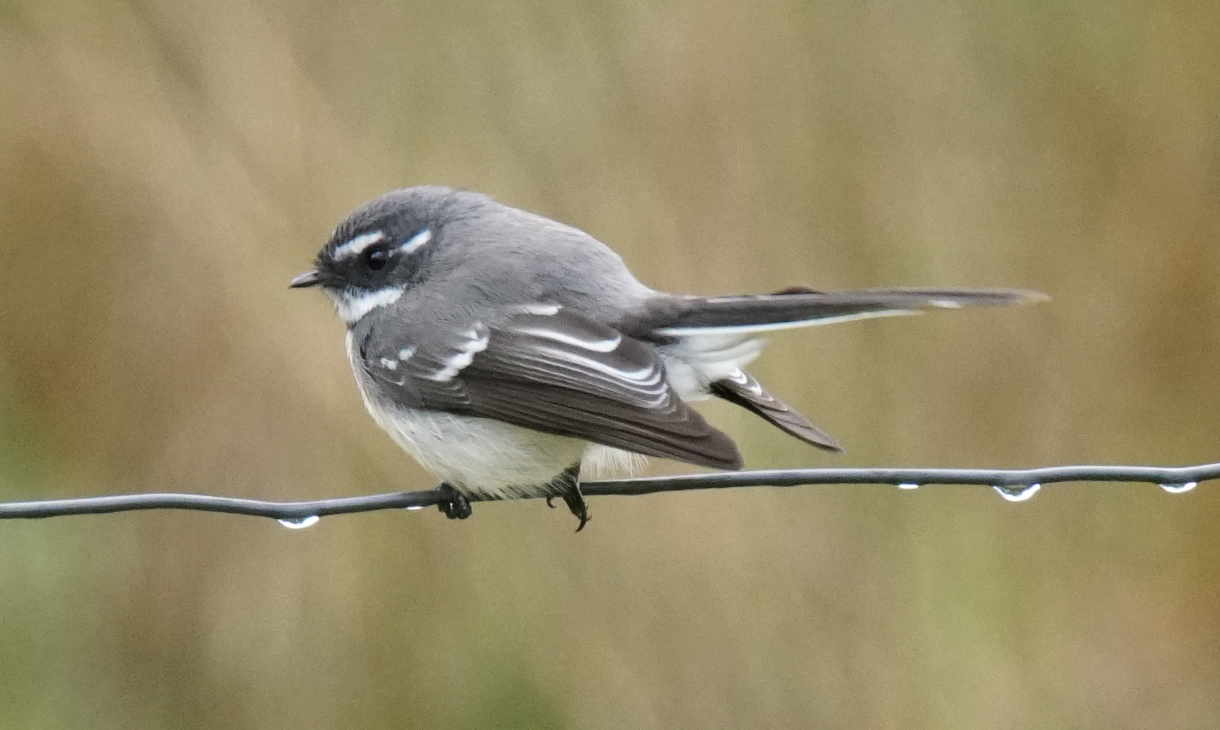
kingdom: Animalia
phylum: Chordata
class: Aves
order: Passeriformes
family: Rhipiduridae
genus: Rhipidura
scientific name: Rhipidura albiscapa
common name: Grey fantail
